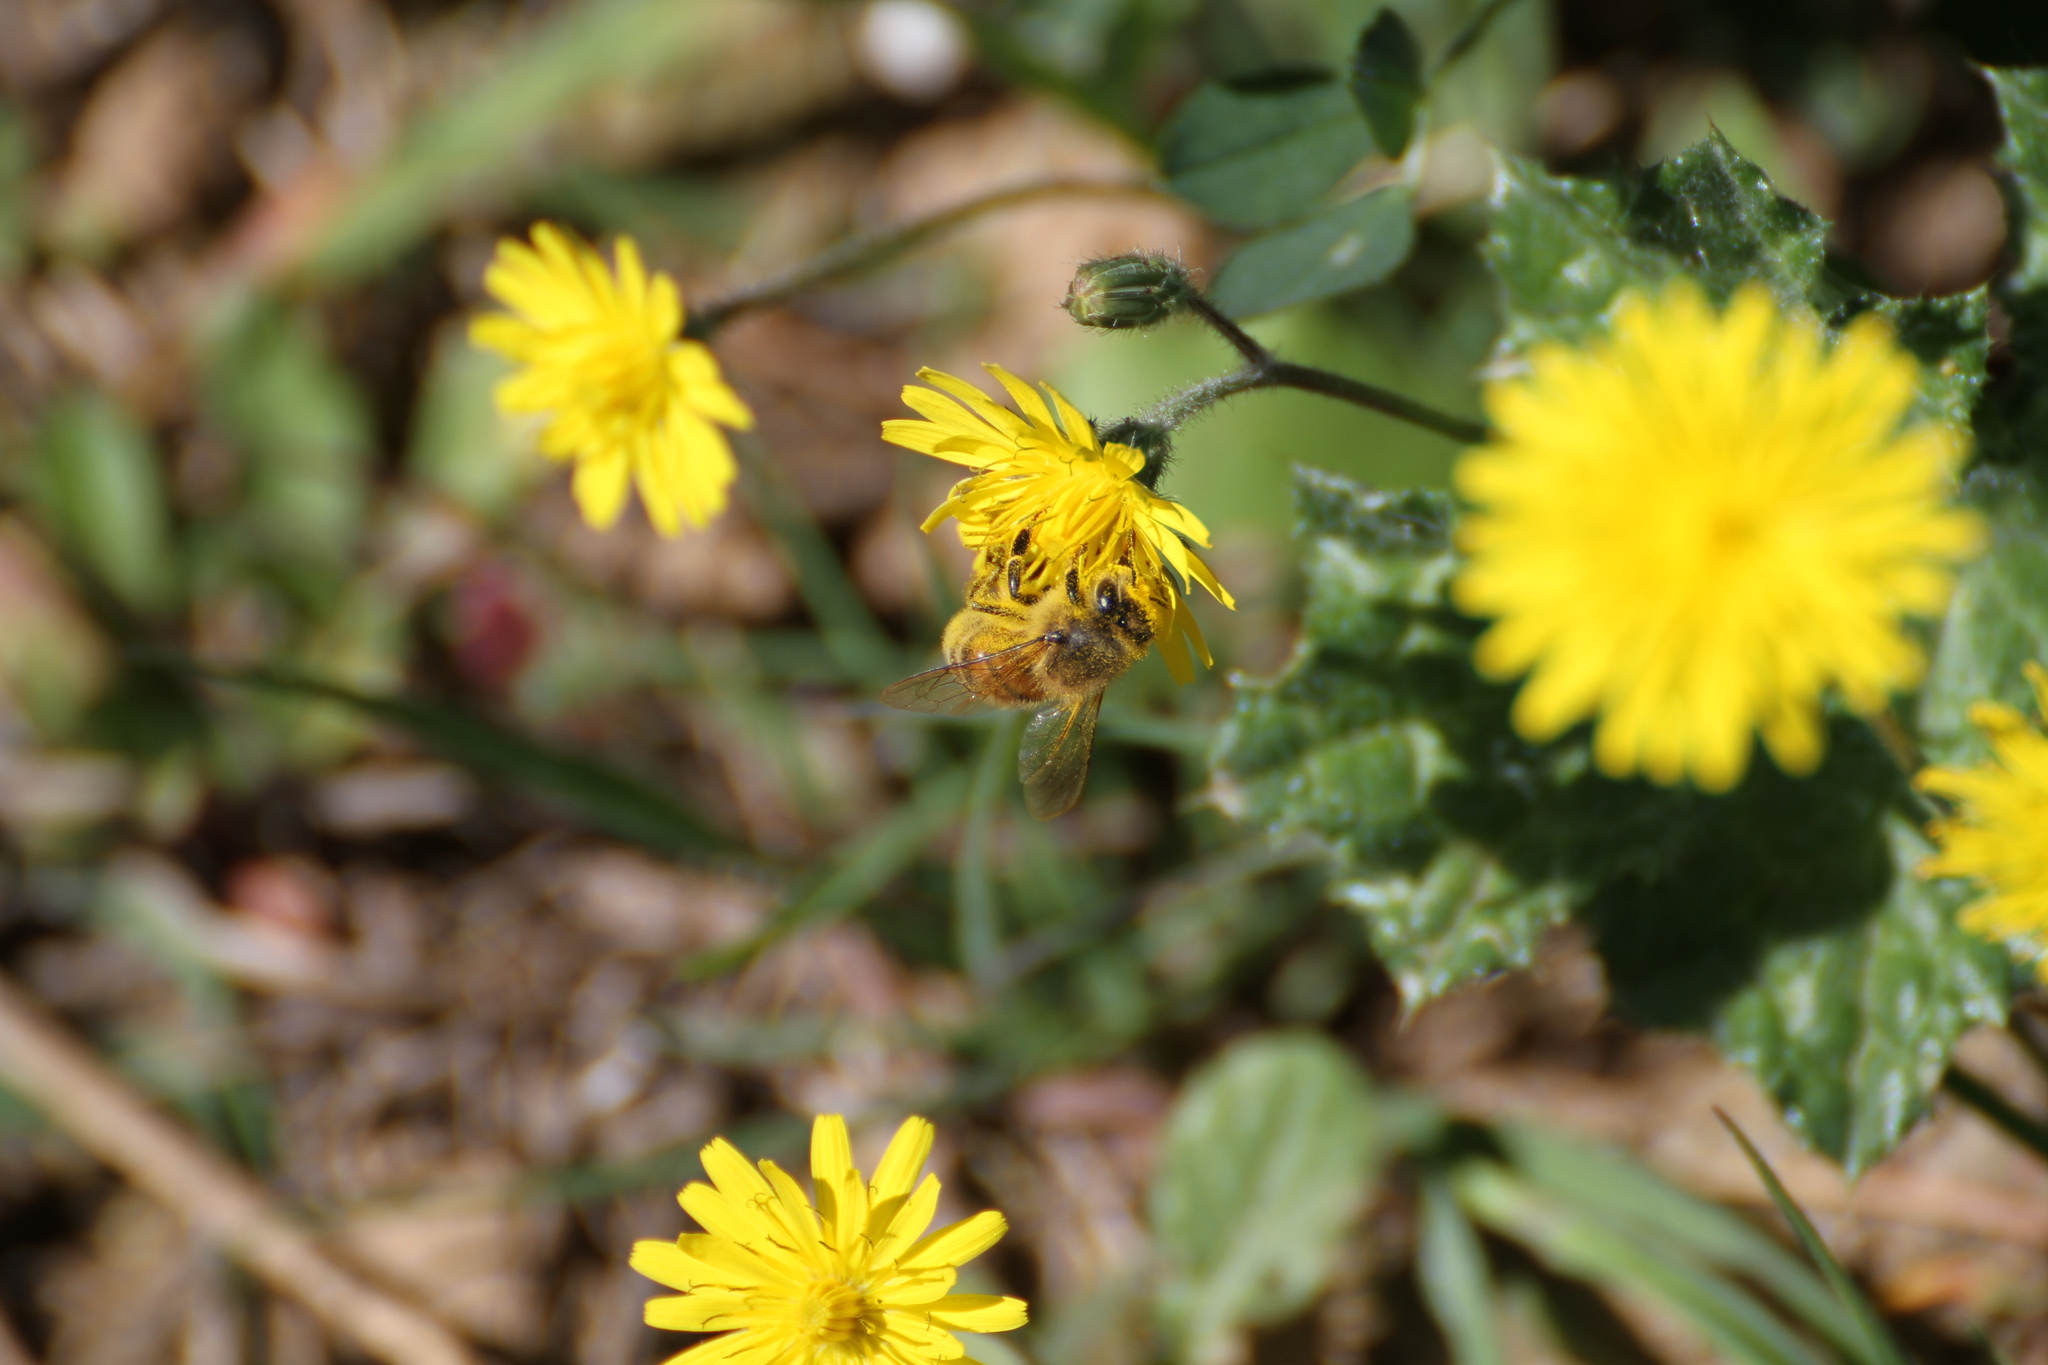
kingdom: Animalia
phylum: Arthropoda
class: Insecta
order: Hymenoptera
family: Apidae
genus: Apis
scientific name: Apis mellifera
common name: Honey bee
